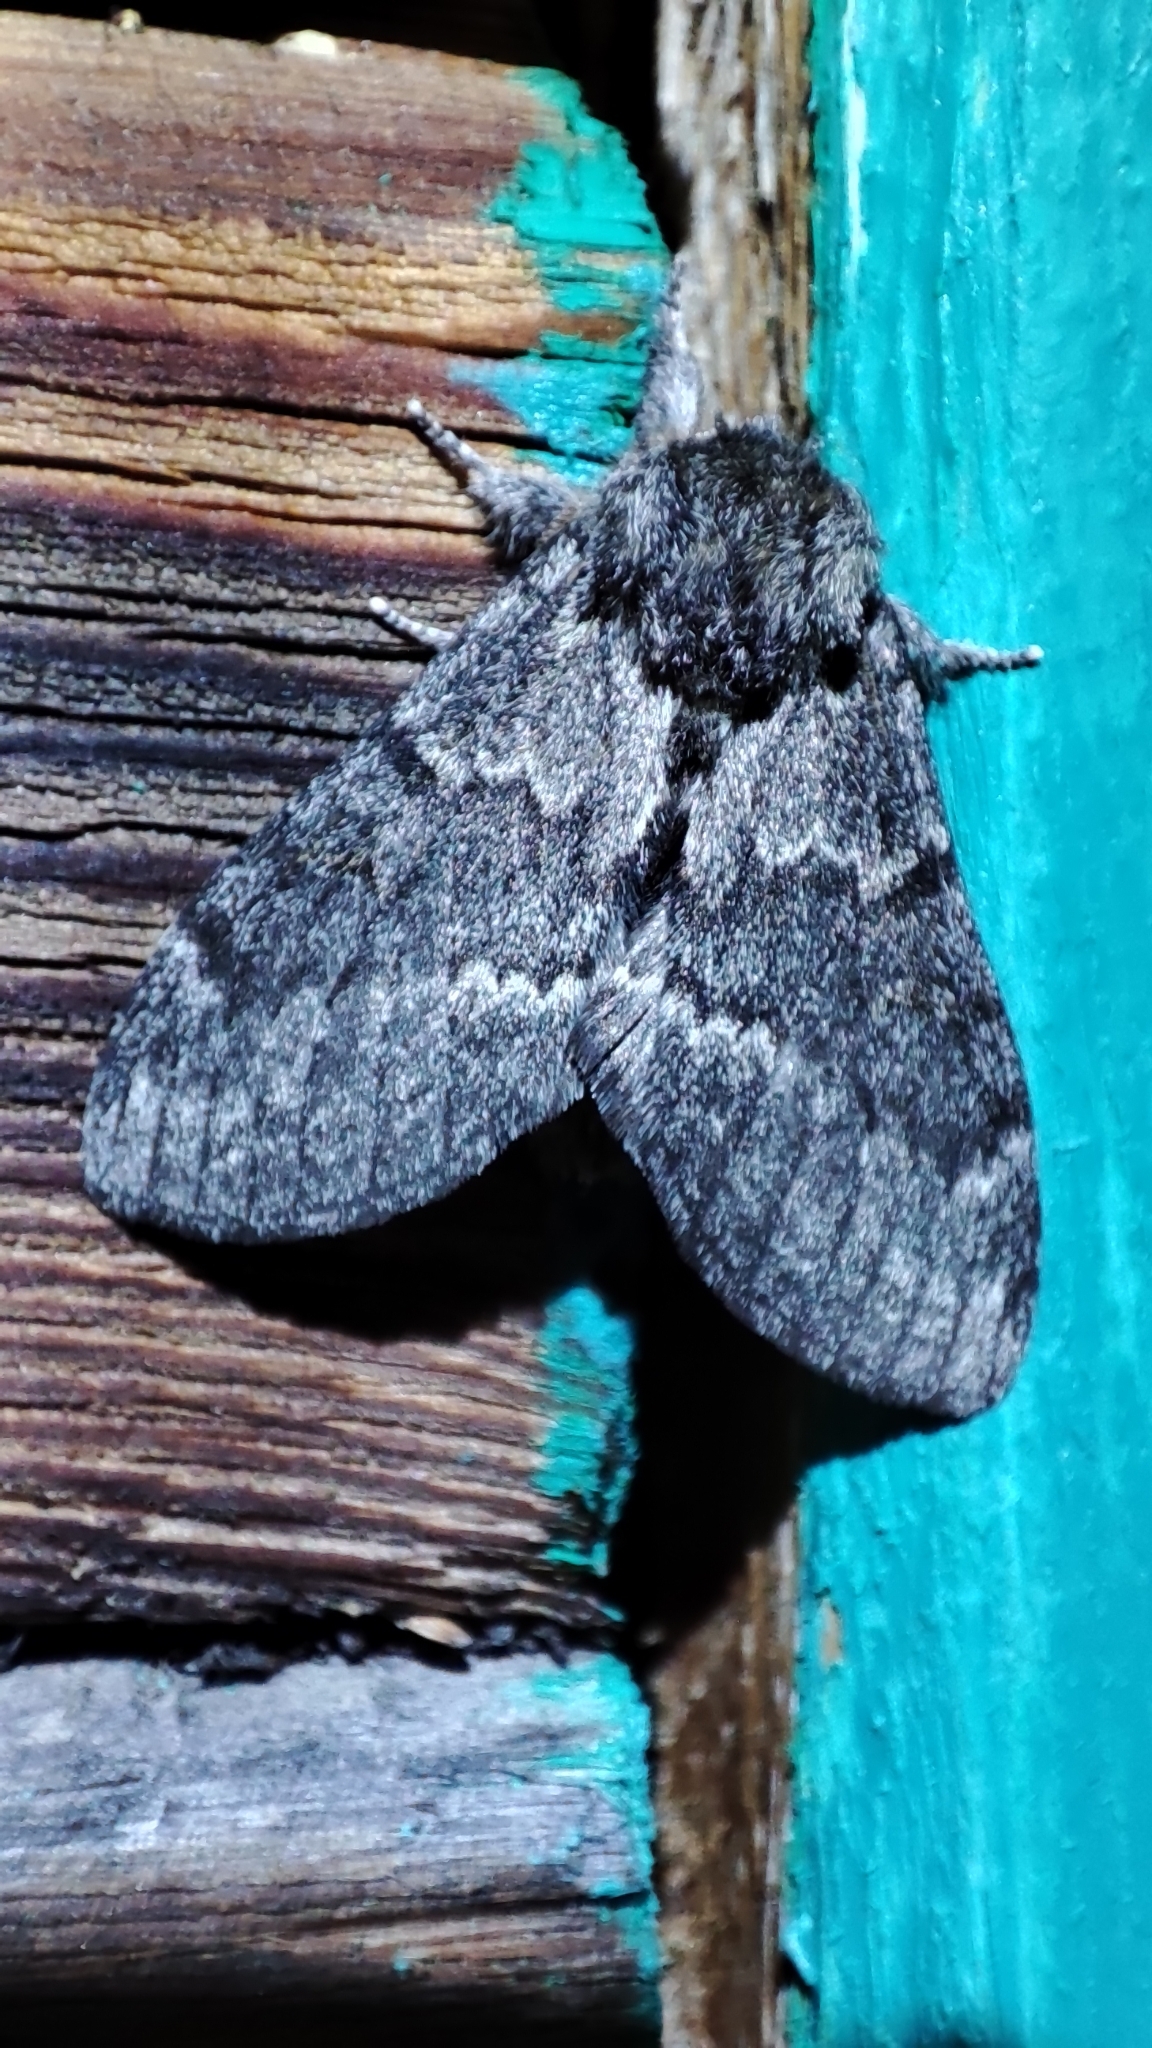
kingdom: Animalia
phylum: Arthropoda
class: Insecta
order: Lepidoptera
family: Notodontidae
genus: Notodonta
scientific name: Notodonta torva
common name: Large dark prominent
